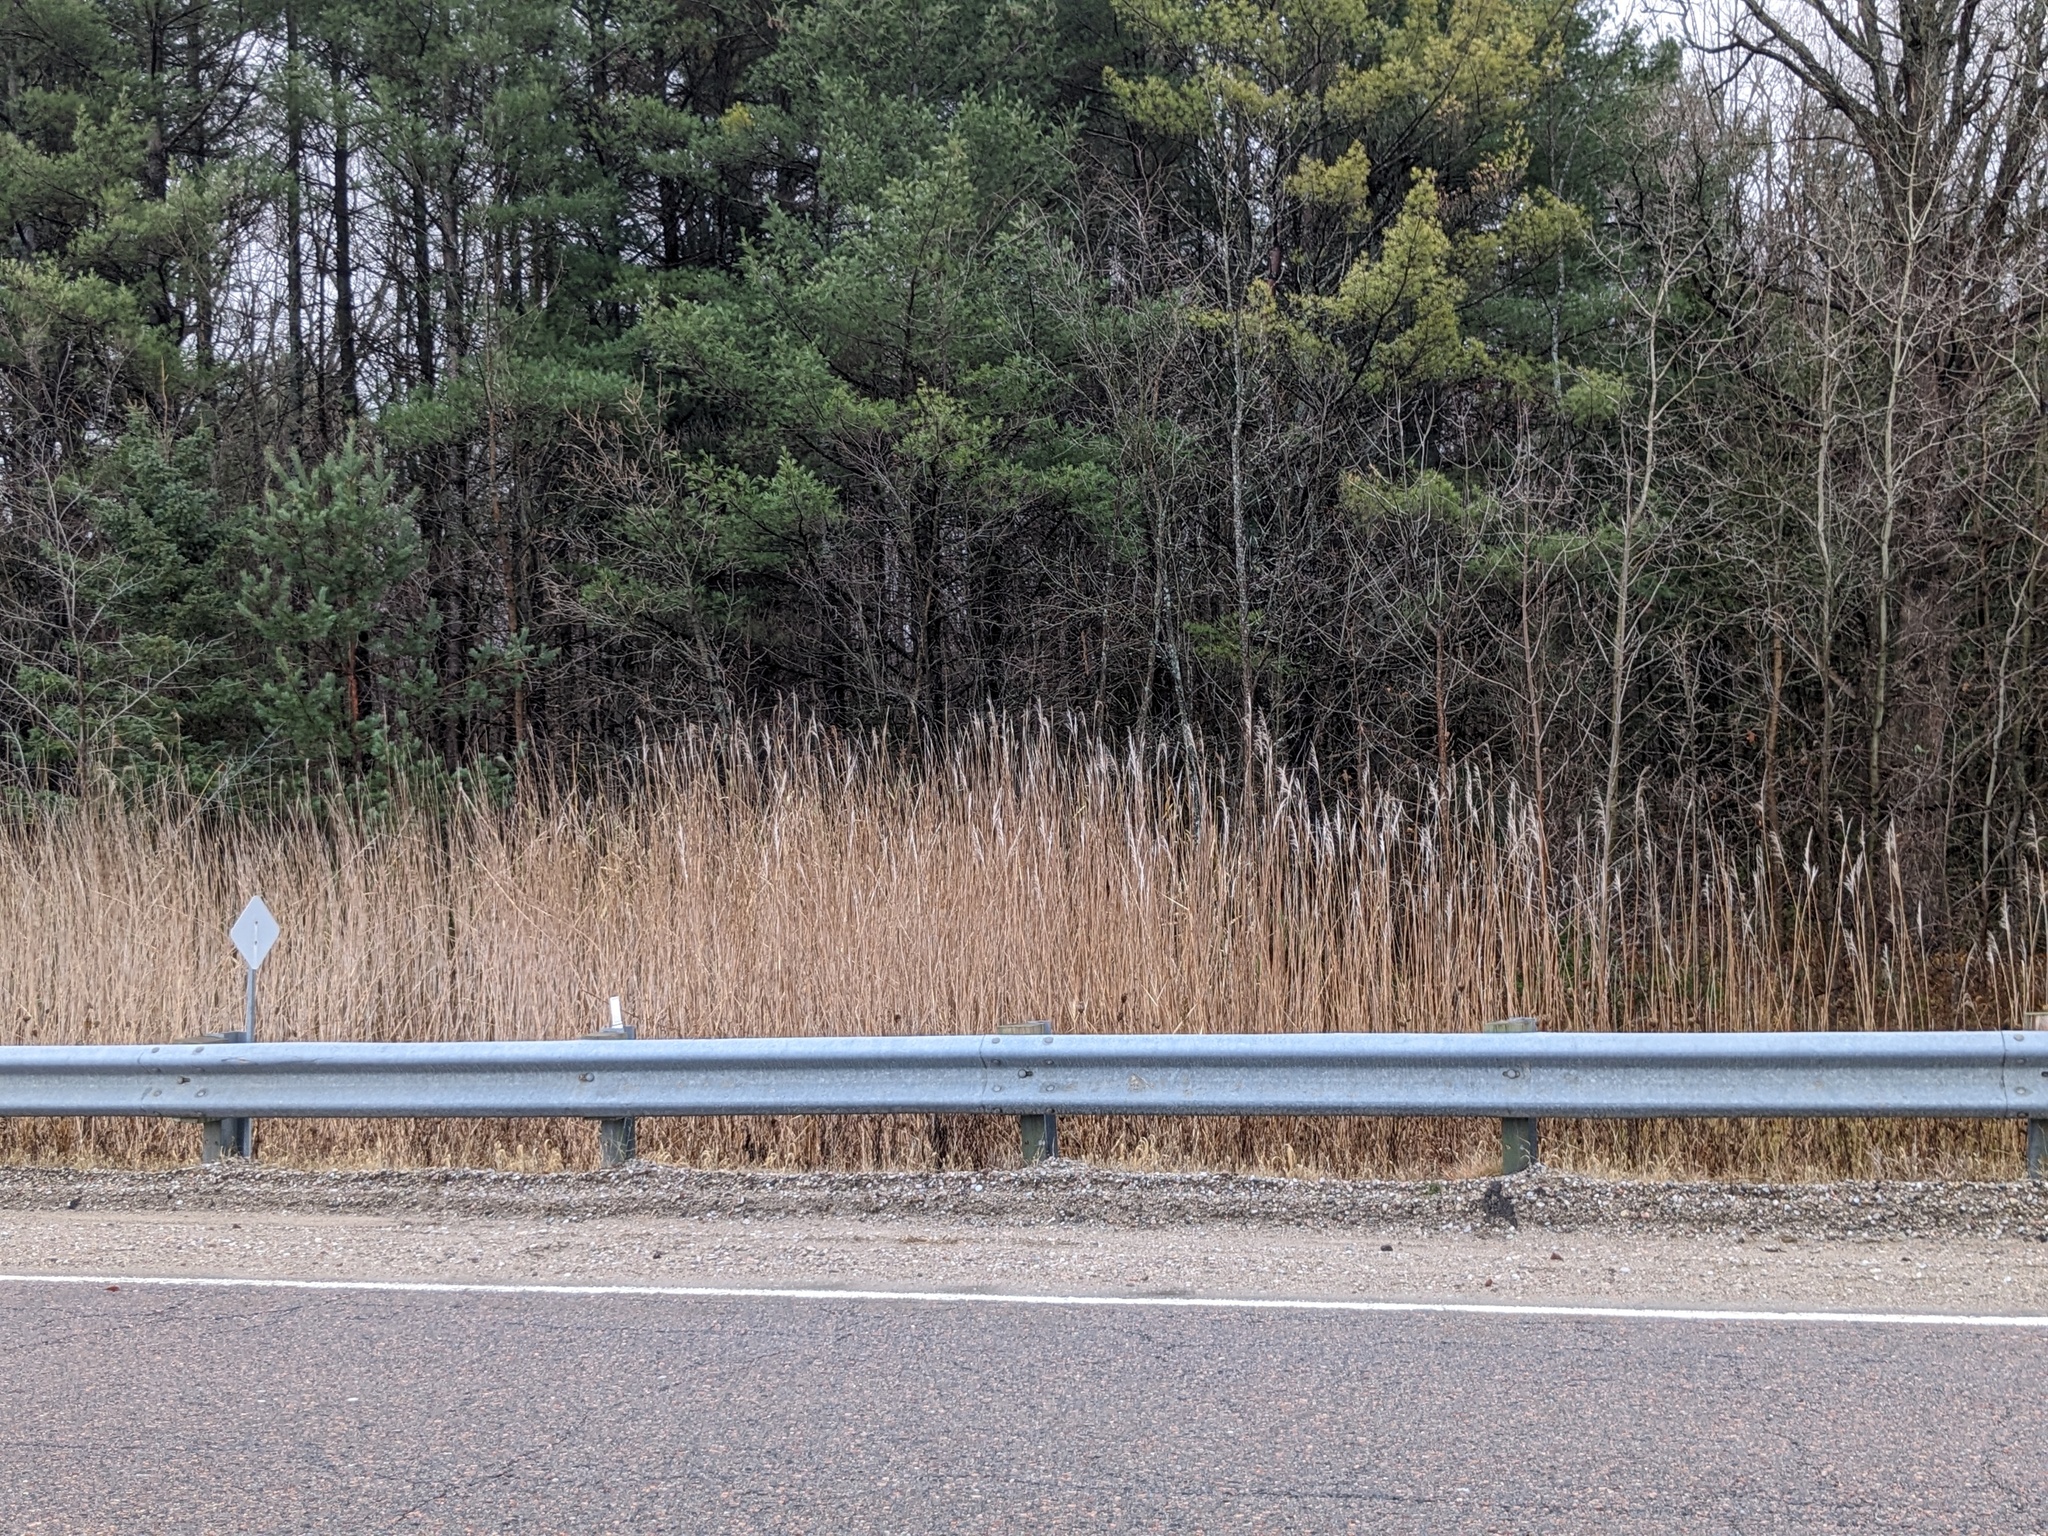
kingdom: Plantae
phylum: Tracheophyta
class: Liliopsida
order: Poales
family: Poaceae
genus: Phragmites
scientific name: Phragmites australis
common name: Common reed
